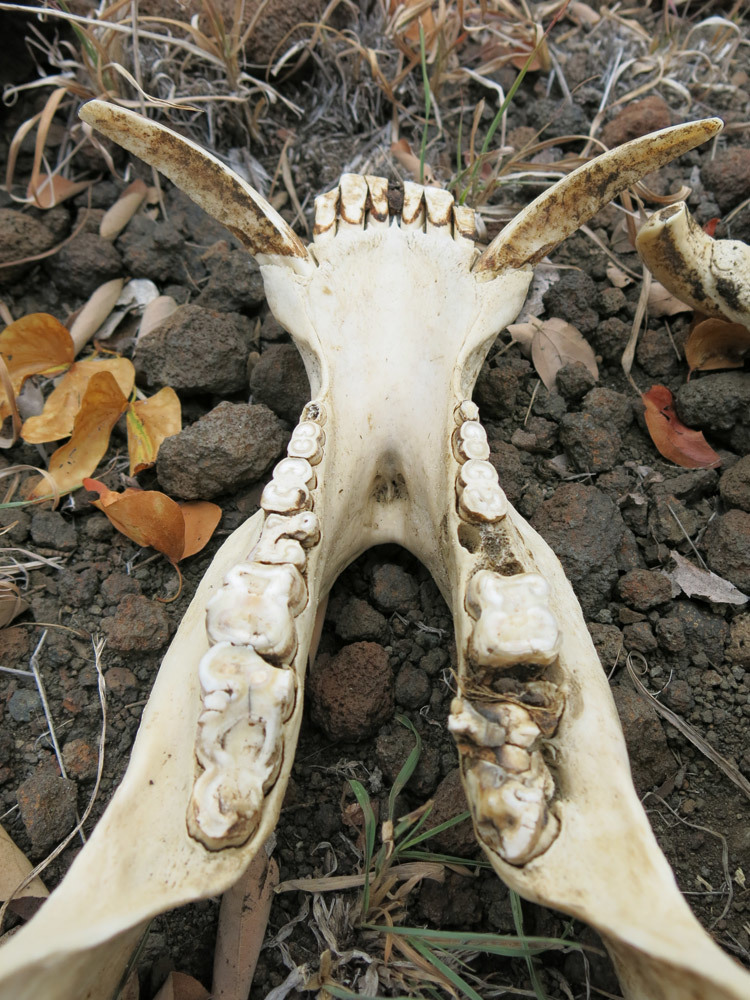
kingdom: Animalia
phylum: Chordata
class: Mammalia
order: Artiodactyla
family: Suidae
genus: Potamochoerus
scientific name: Potamochoerus larvatus
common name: Bushpig
